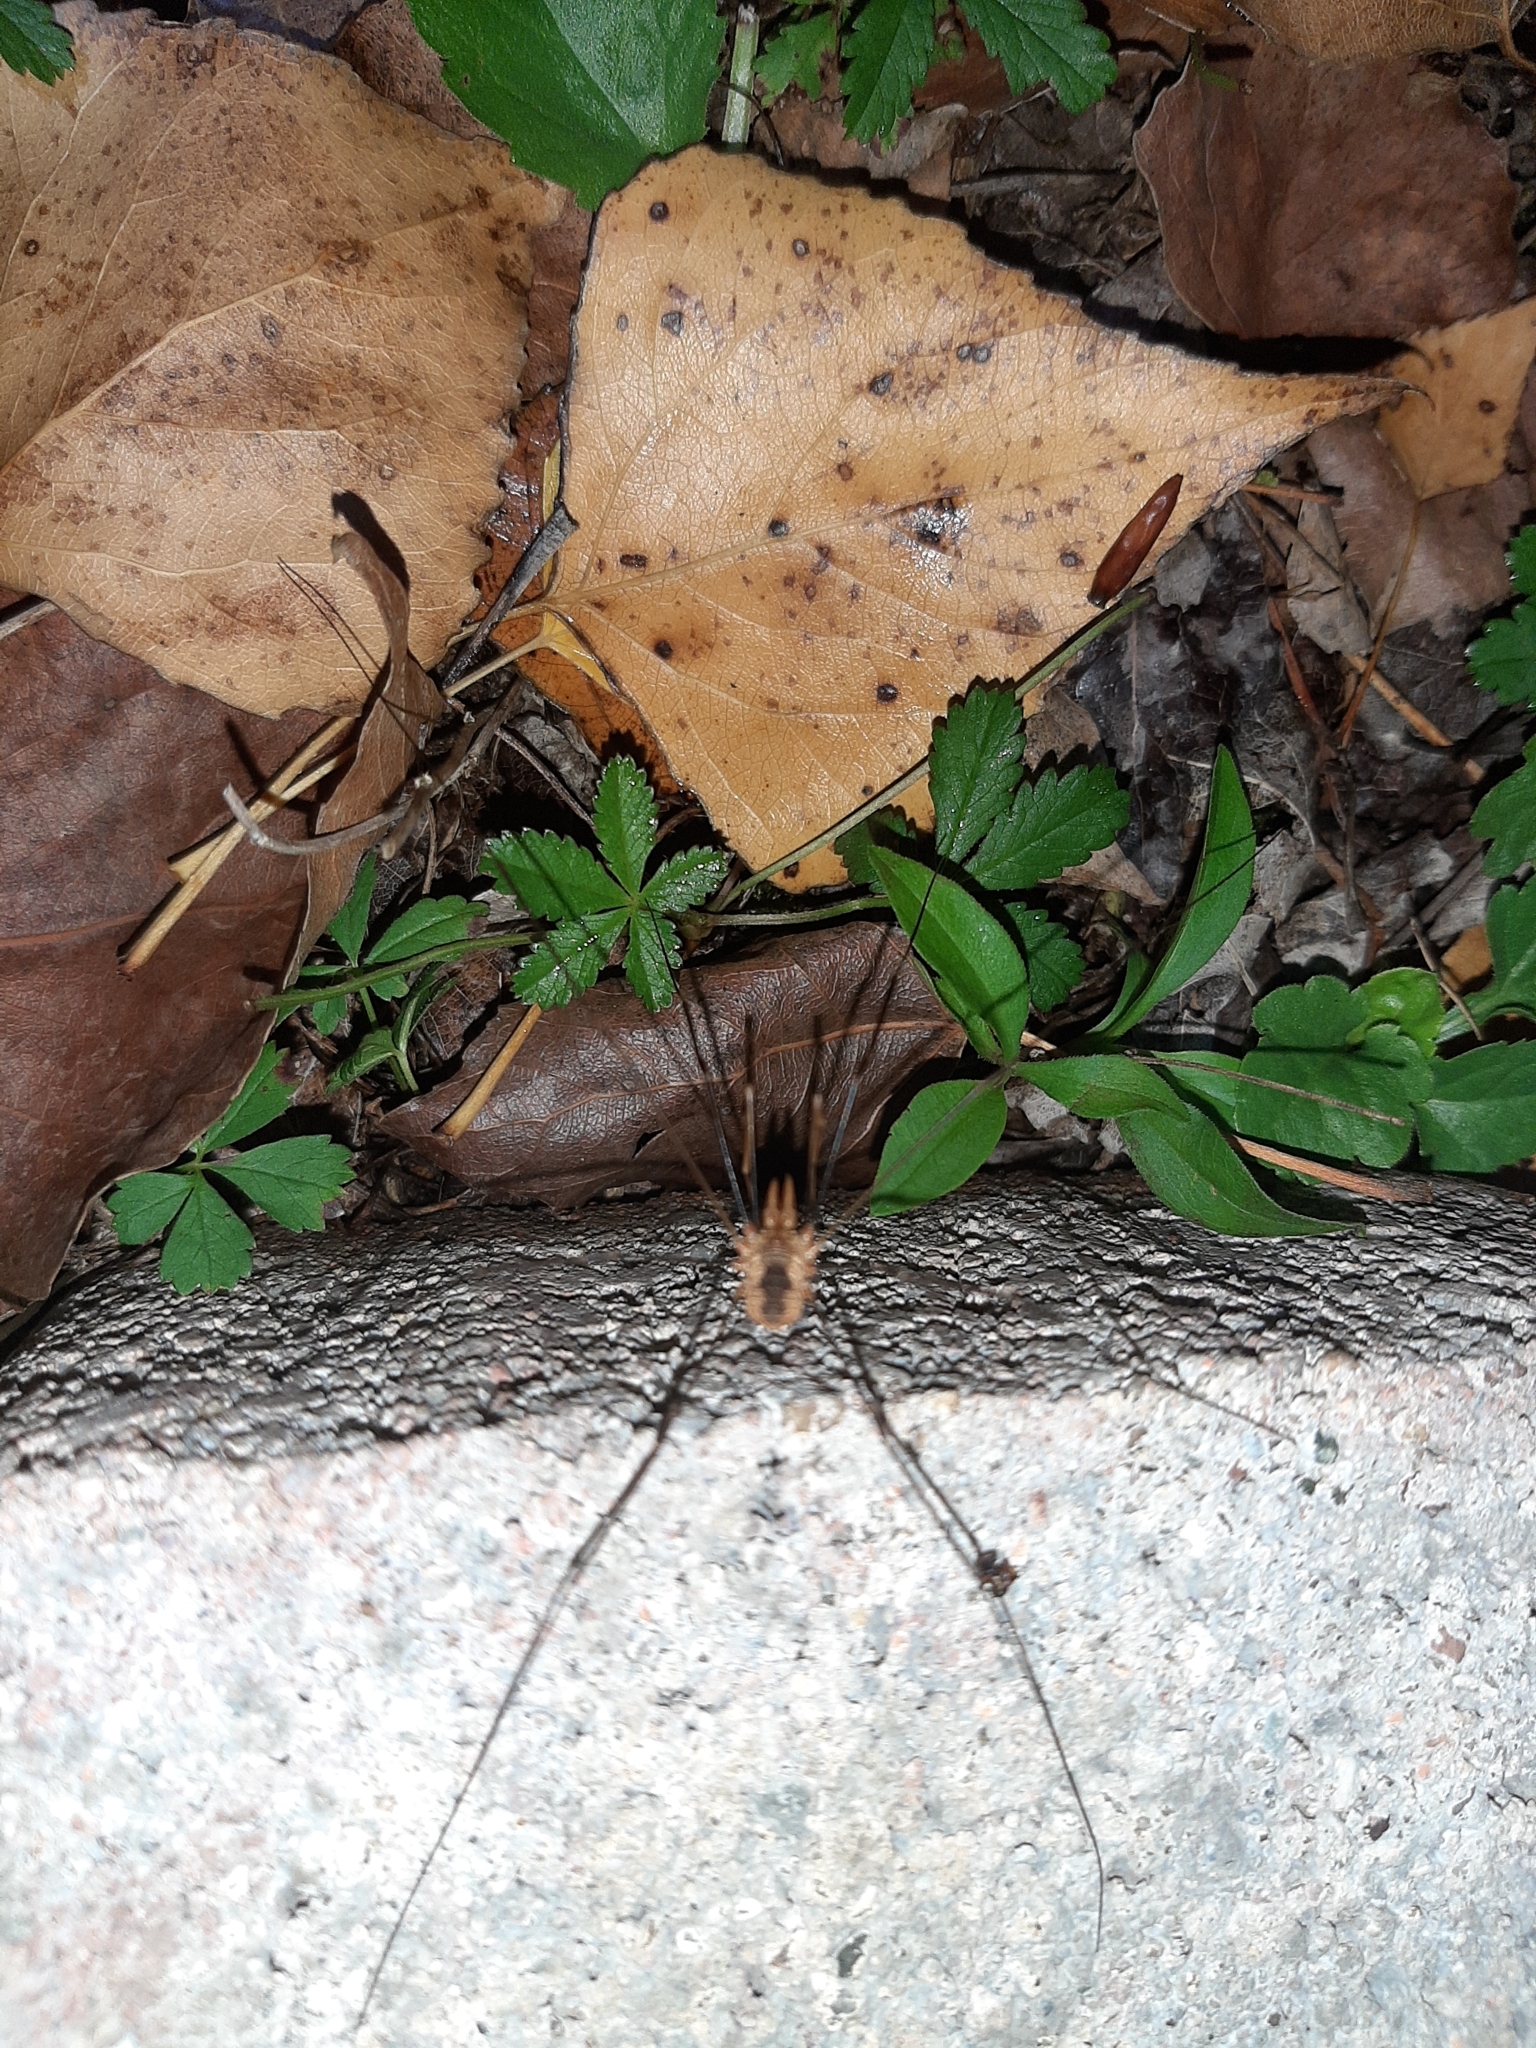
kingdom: Animalia
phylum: Arthropoda
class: Arachnida
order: Opiliones
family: Phalangiidae
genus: Phalangium
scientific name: Phalangium opilio
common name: Daddy longleg
